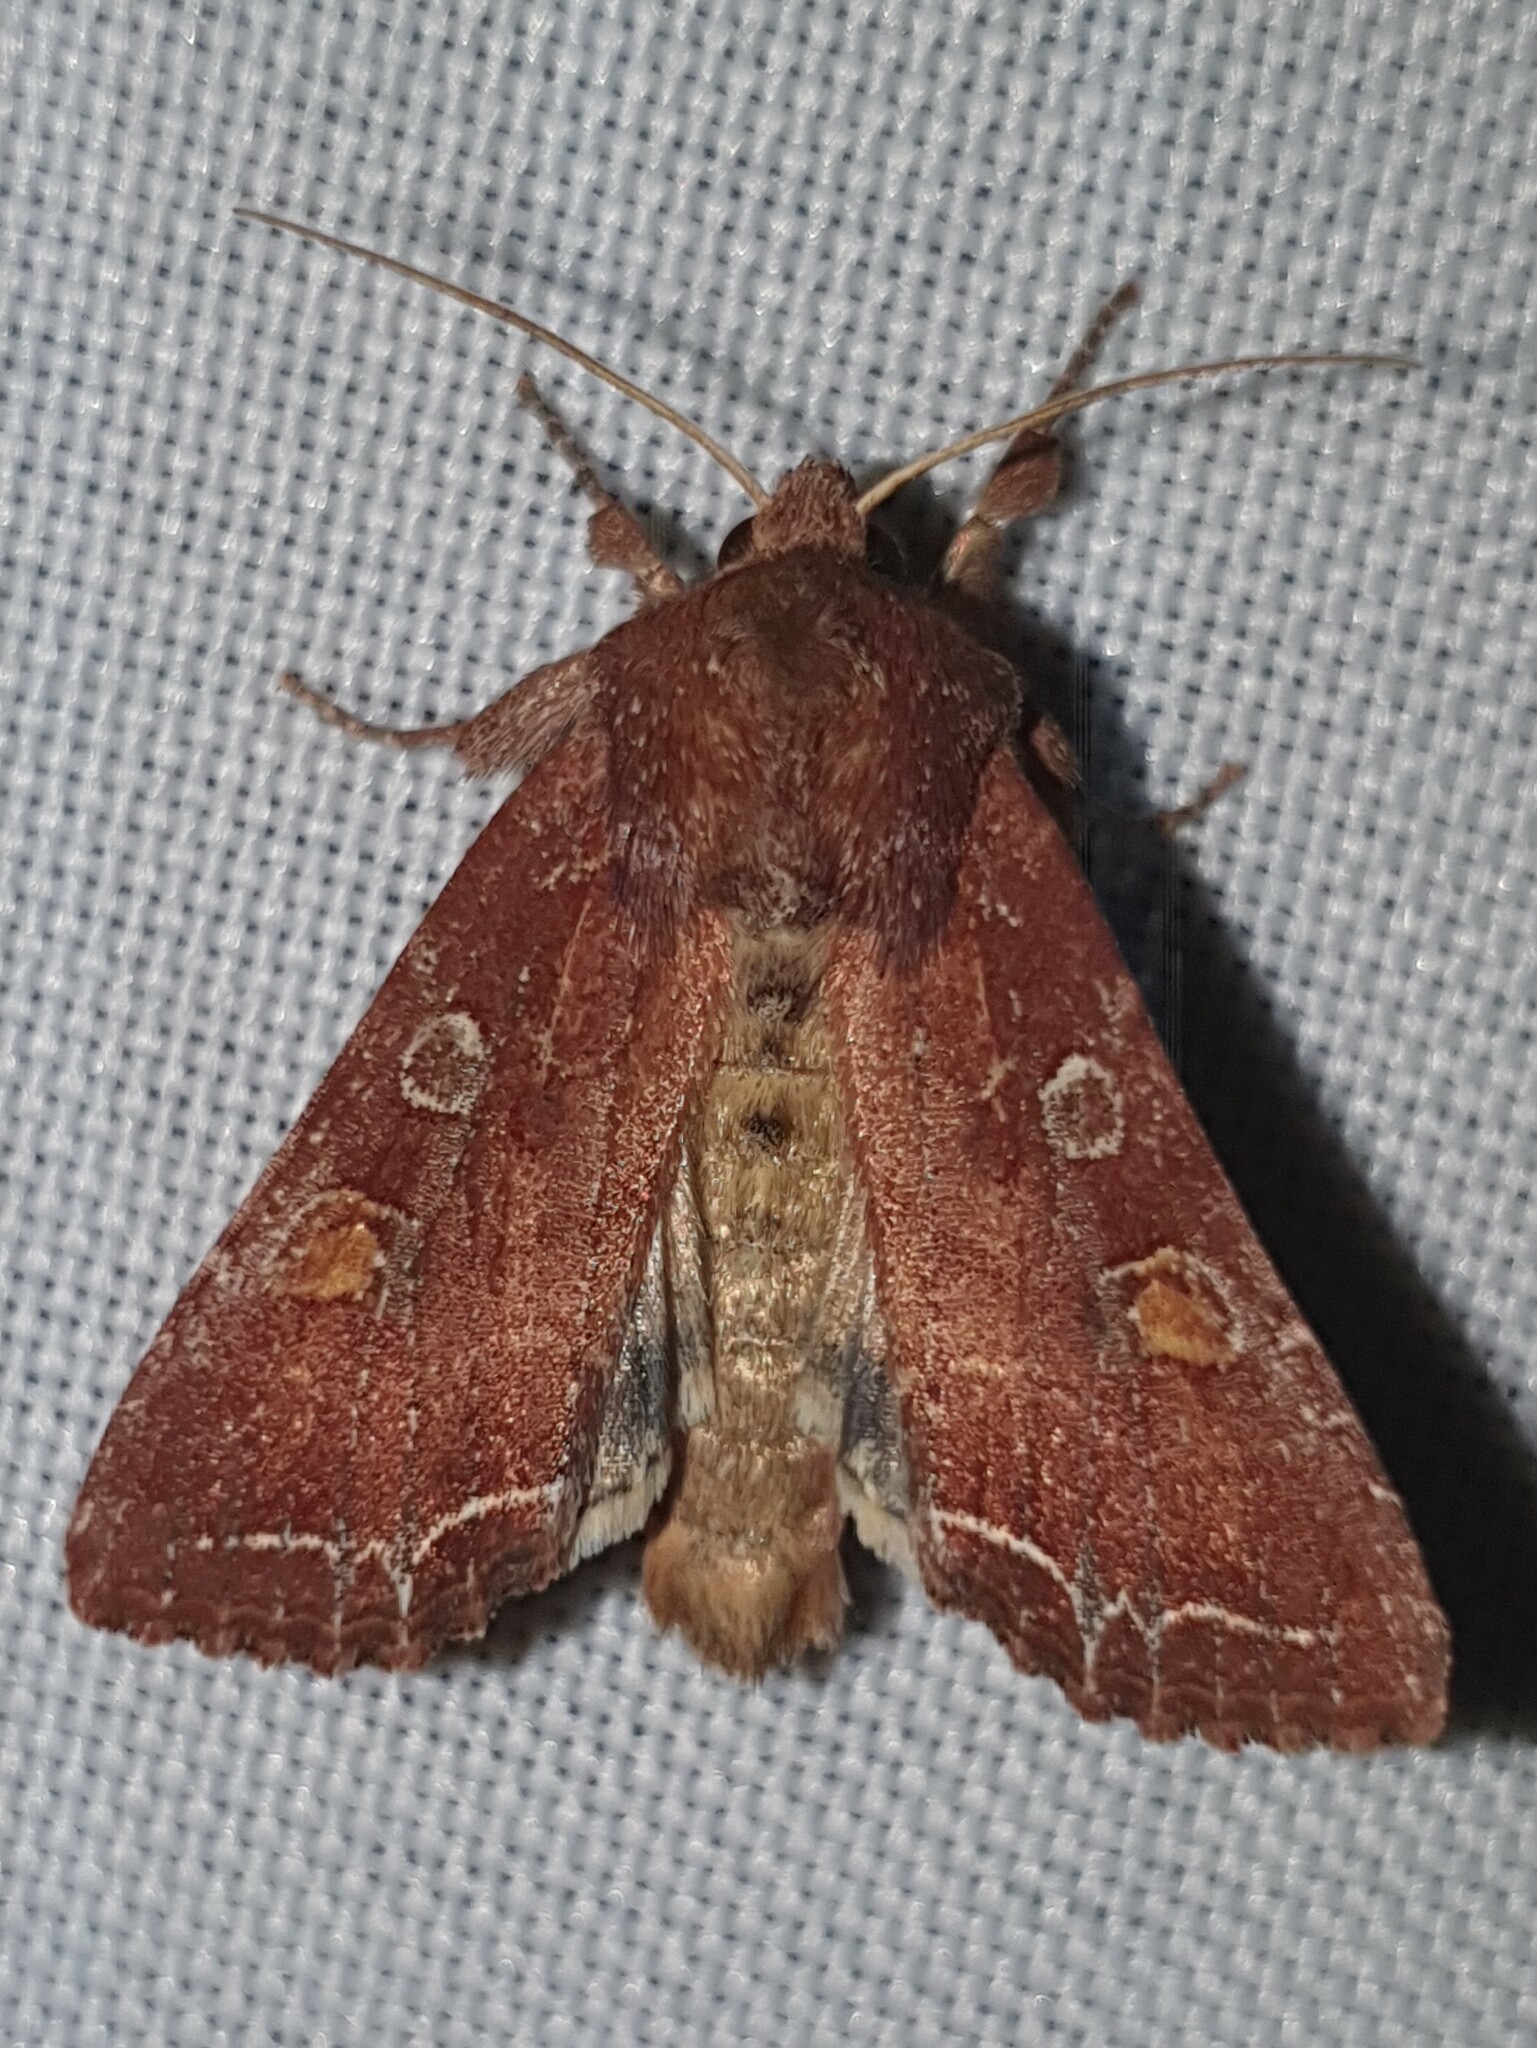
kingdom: Animalia
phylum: Arthropoda
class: Insecta
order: Lepidoptera
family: Noctuidae
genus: Lacanobia
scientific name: Lacanobia oleracea
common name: Bright-line brown-eye
